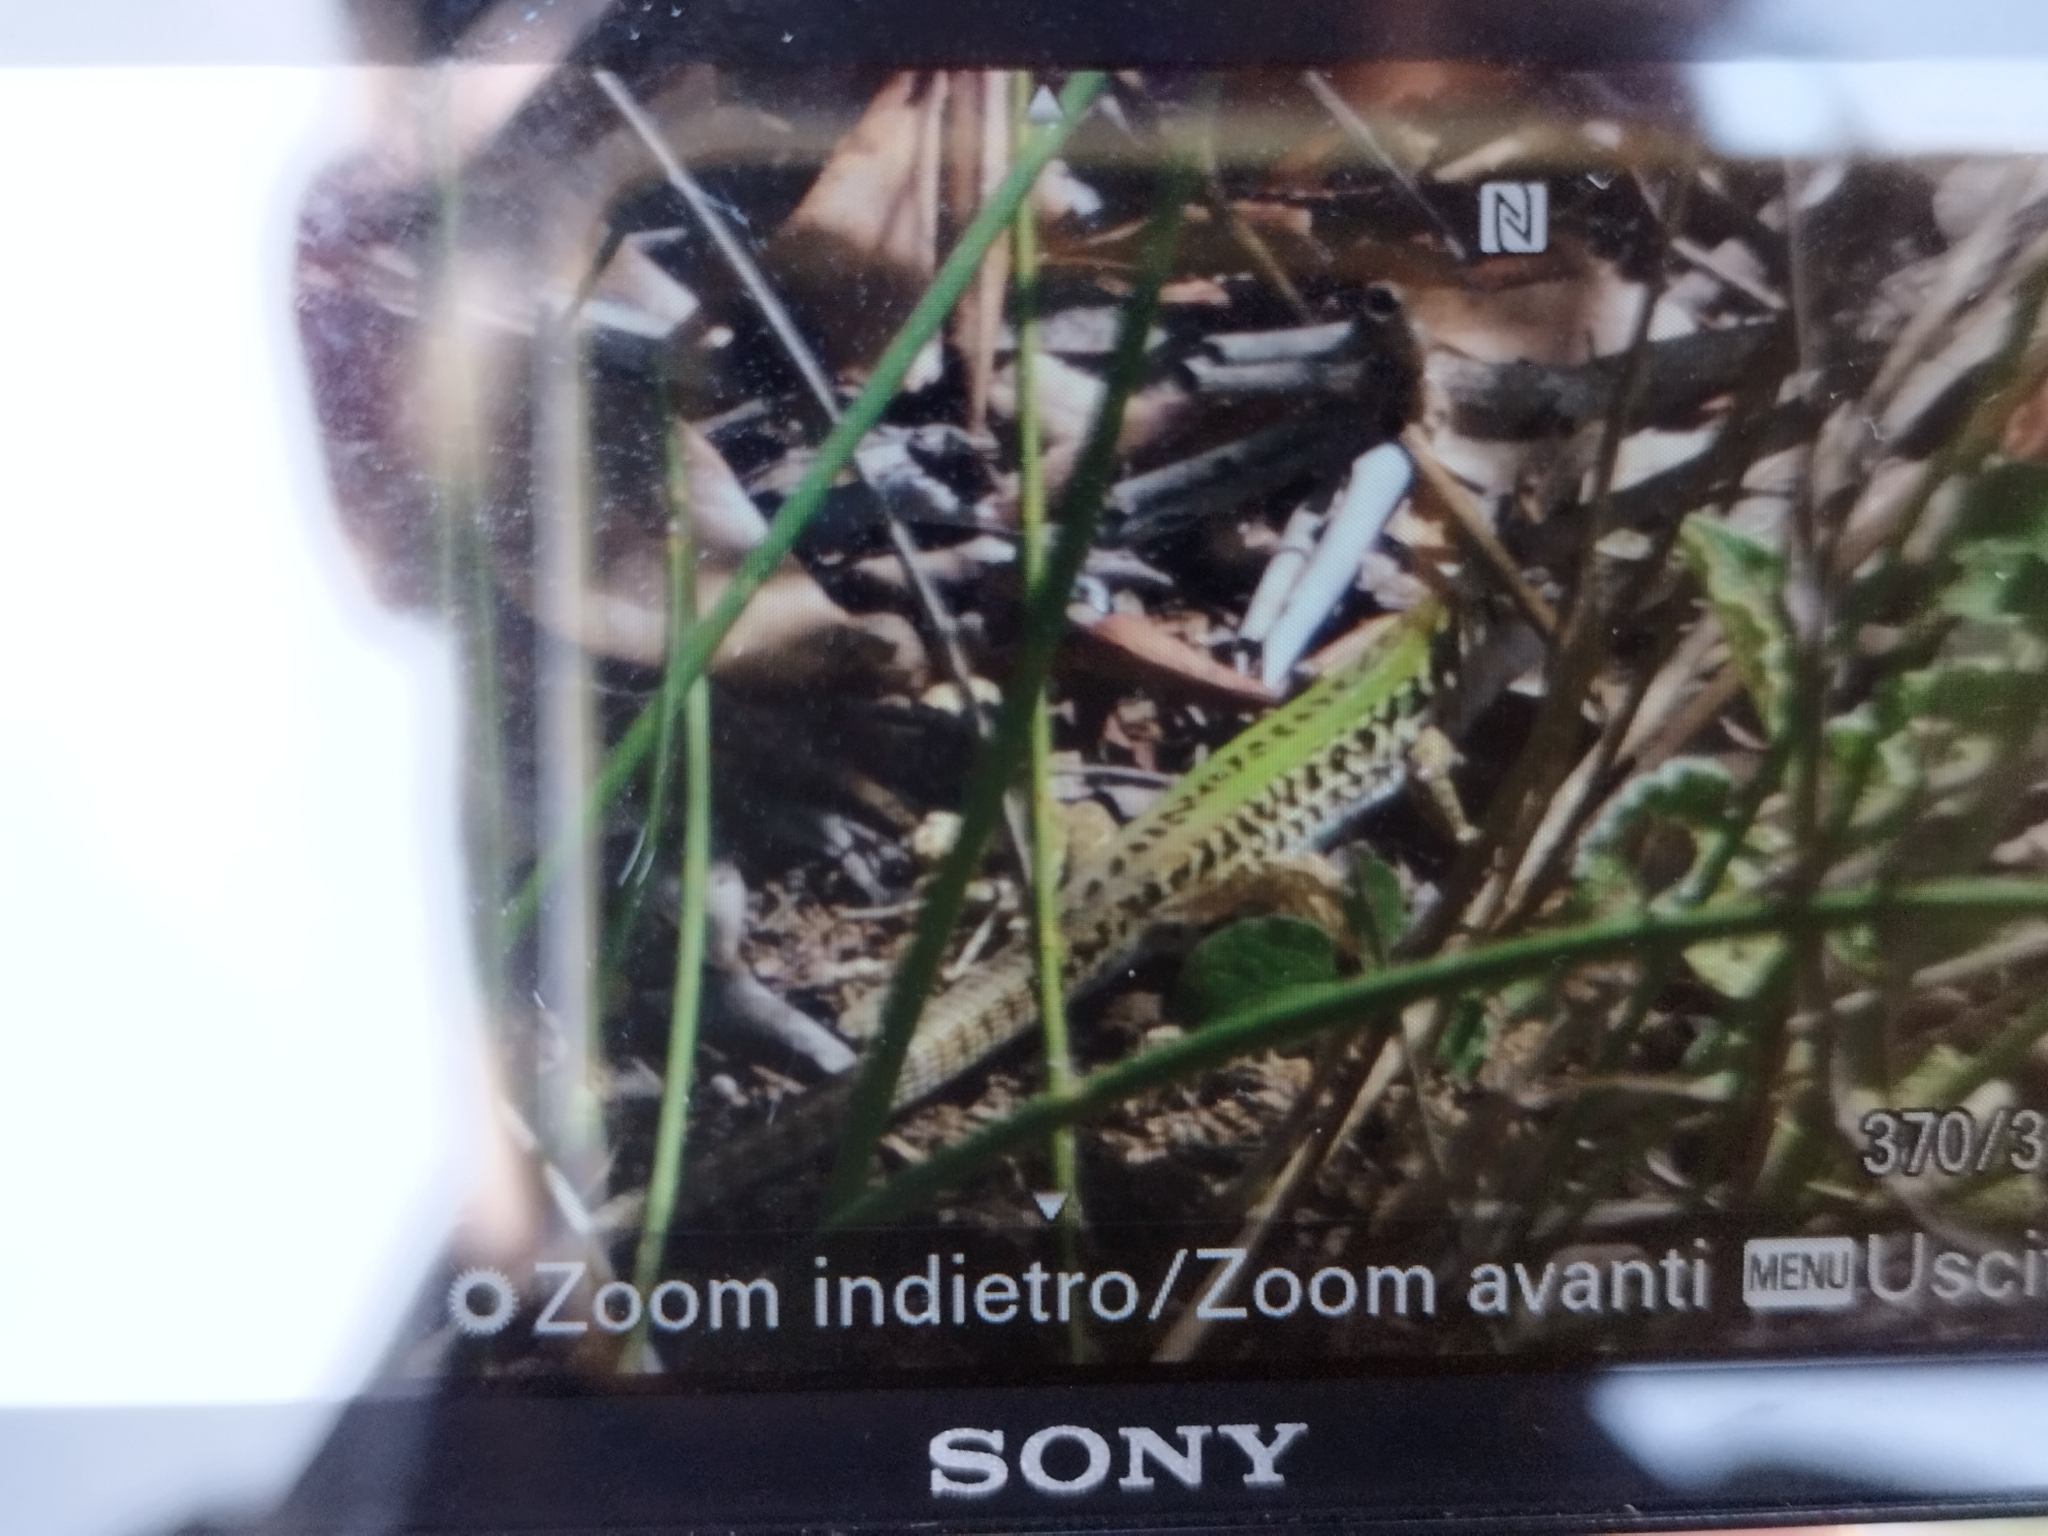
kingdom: Animalia
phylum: Chordata
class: Squamata
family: Lacertidae
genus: Podarcis
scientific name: Podarcis siculus
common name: Italian wall lizard
